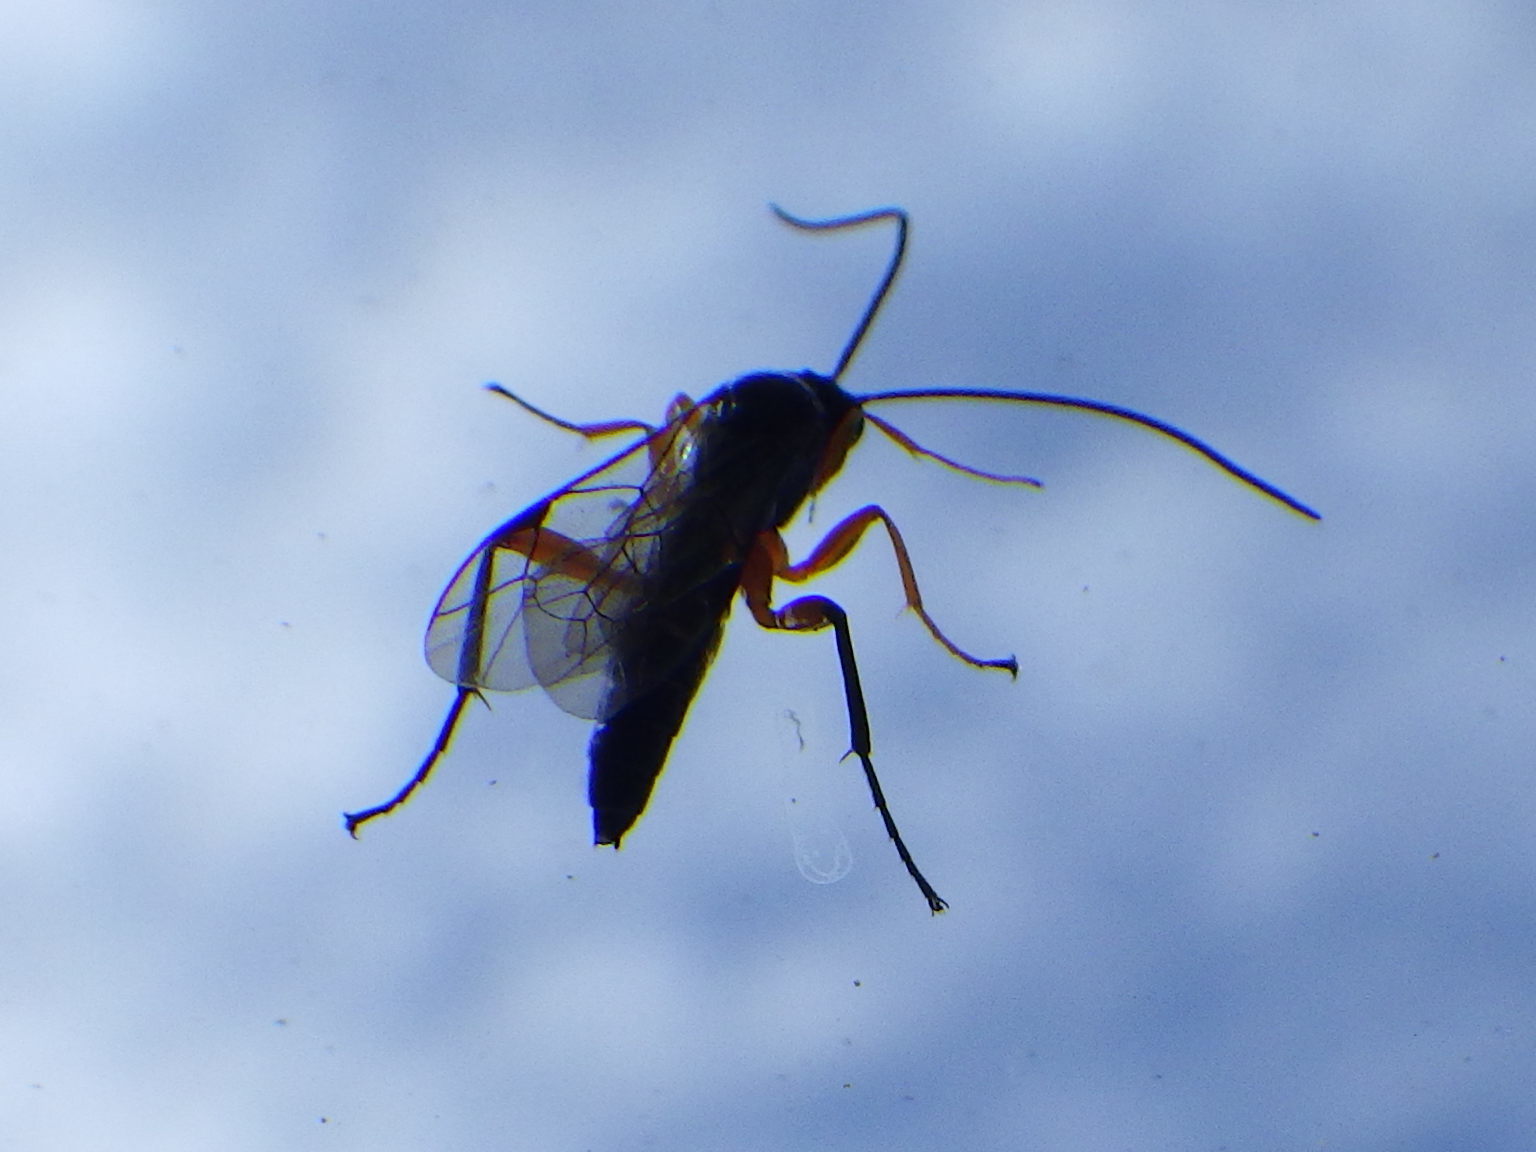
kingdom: Animalia
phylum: Arthropoda
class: Insecta
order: Hymenoptera
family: Ichneumonidae
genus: Pimpla
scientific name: Pimpla pedalis
